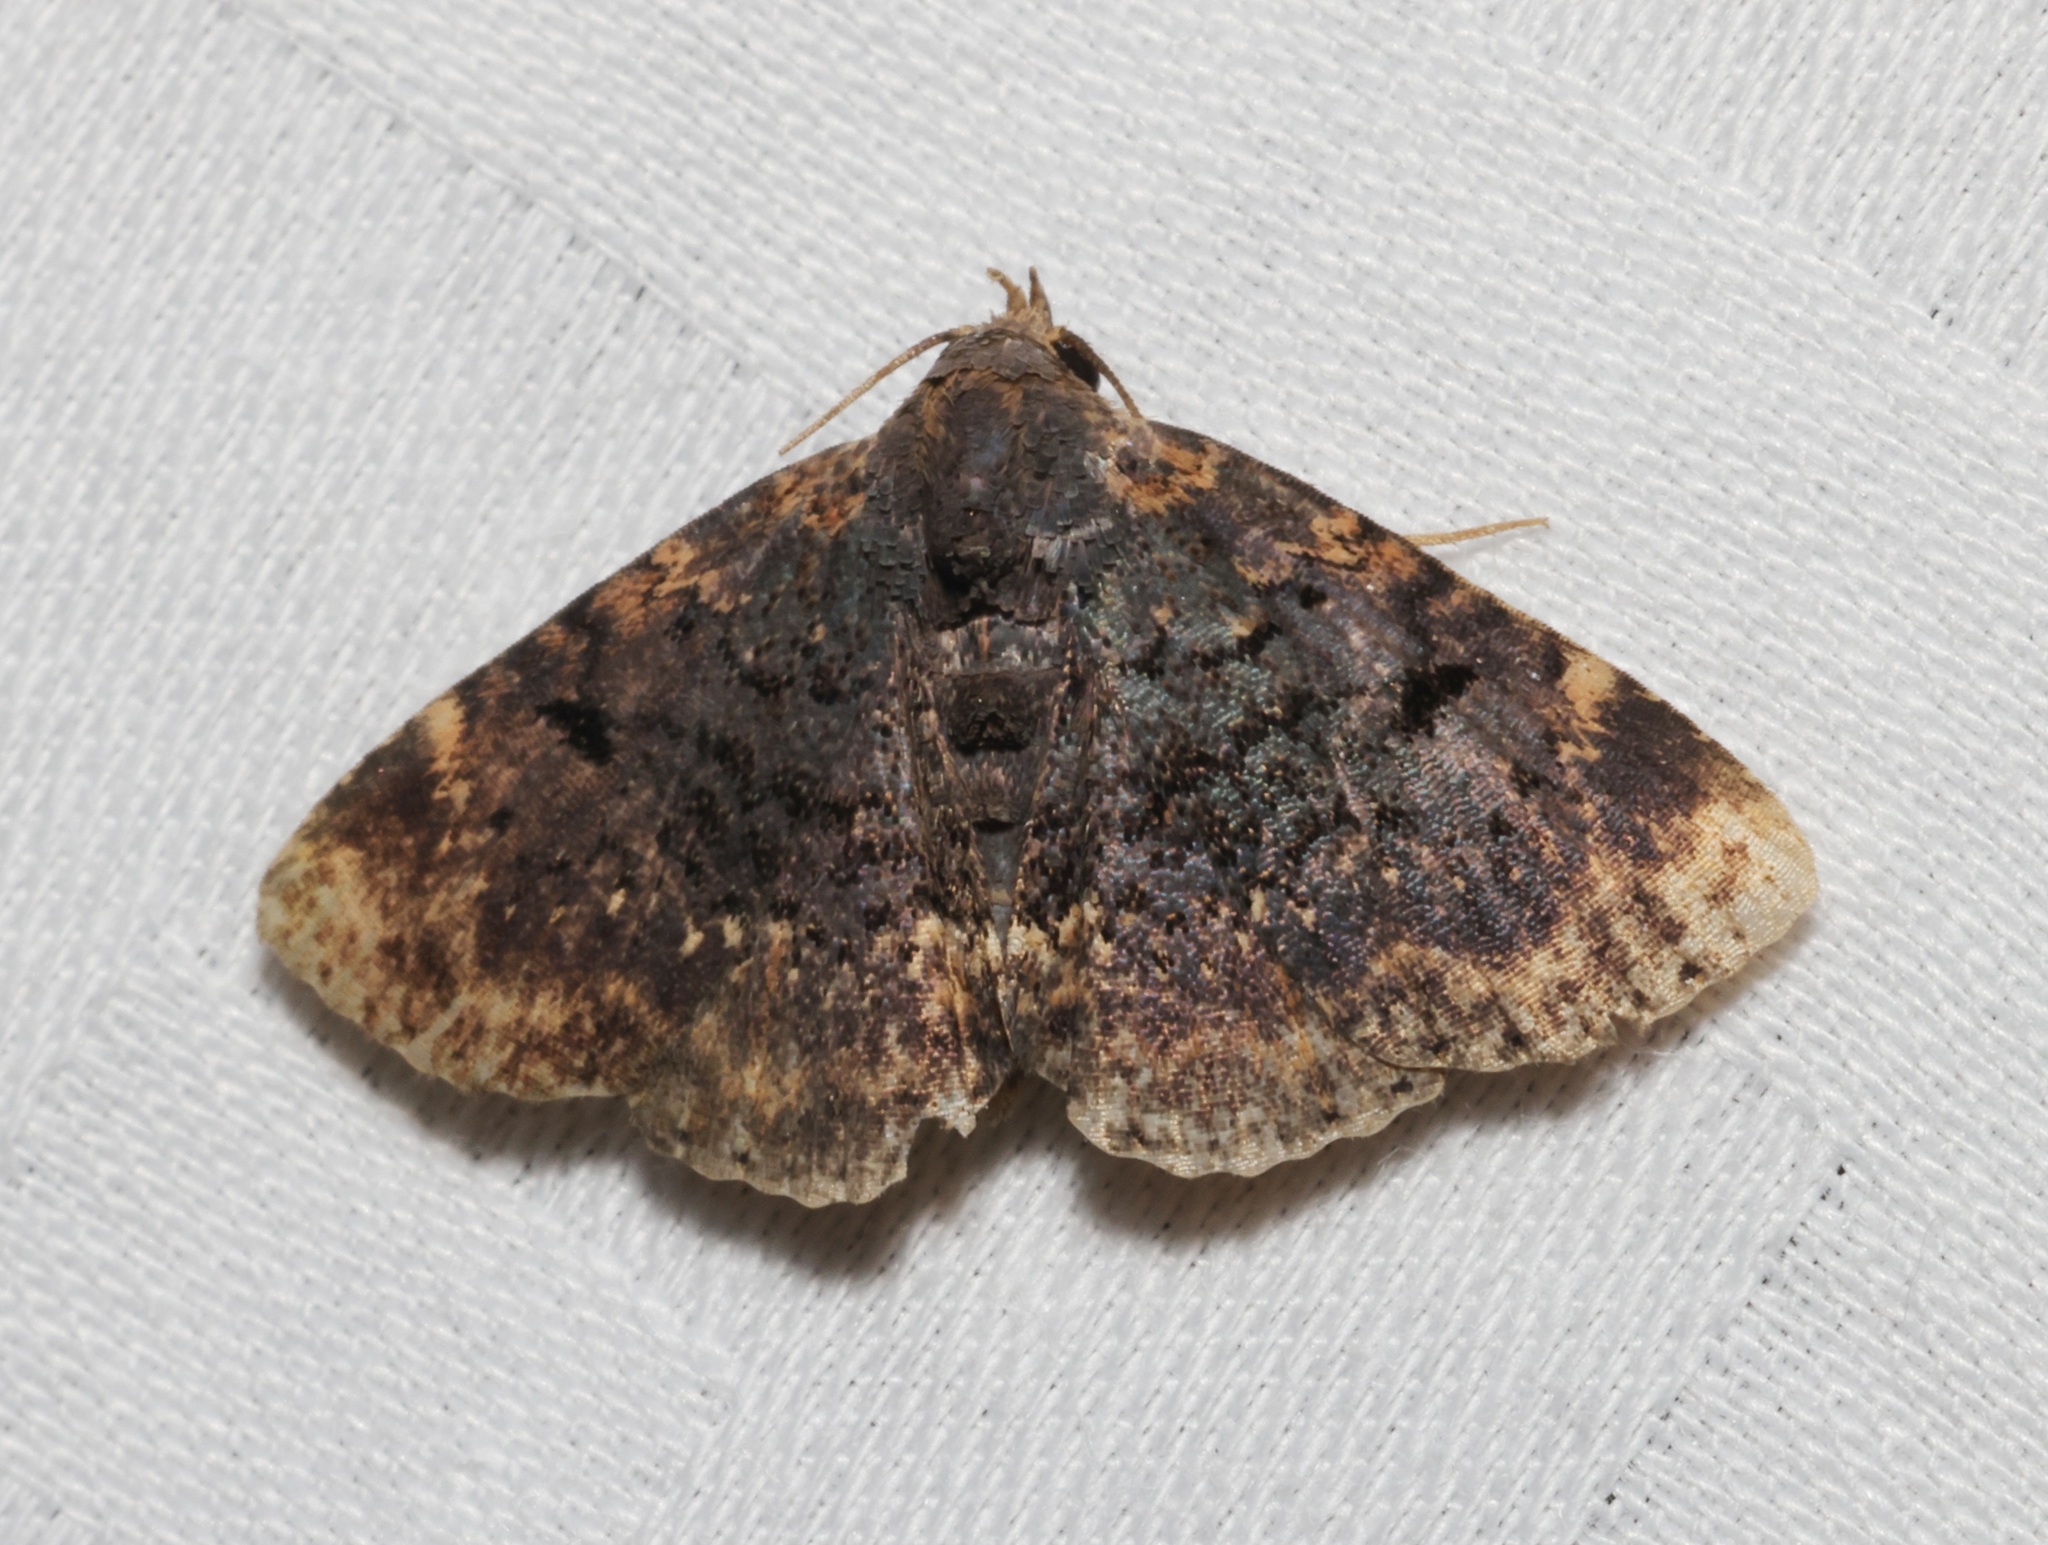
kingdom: Animalia
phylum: Arthropoda
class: Insecta
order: Lepidoptera
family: Erebidae
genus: Diomea
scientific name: Diomea rotundata
